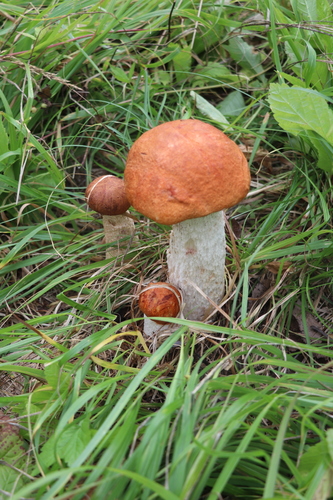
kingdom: Fungi
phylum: Basidiomycota
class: Agaricomycetes
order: Boletales
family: Boletaceae
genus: Leccinum
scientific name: Leccinum albostipitatum
